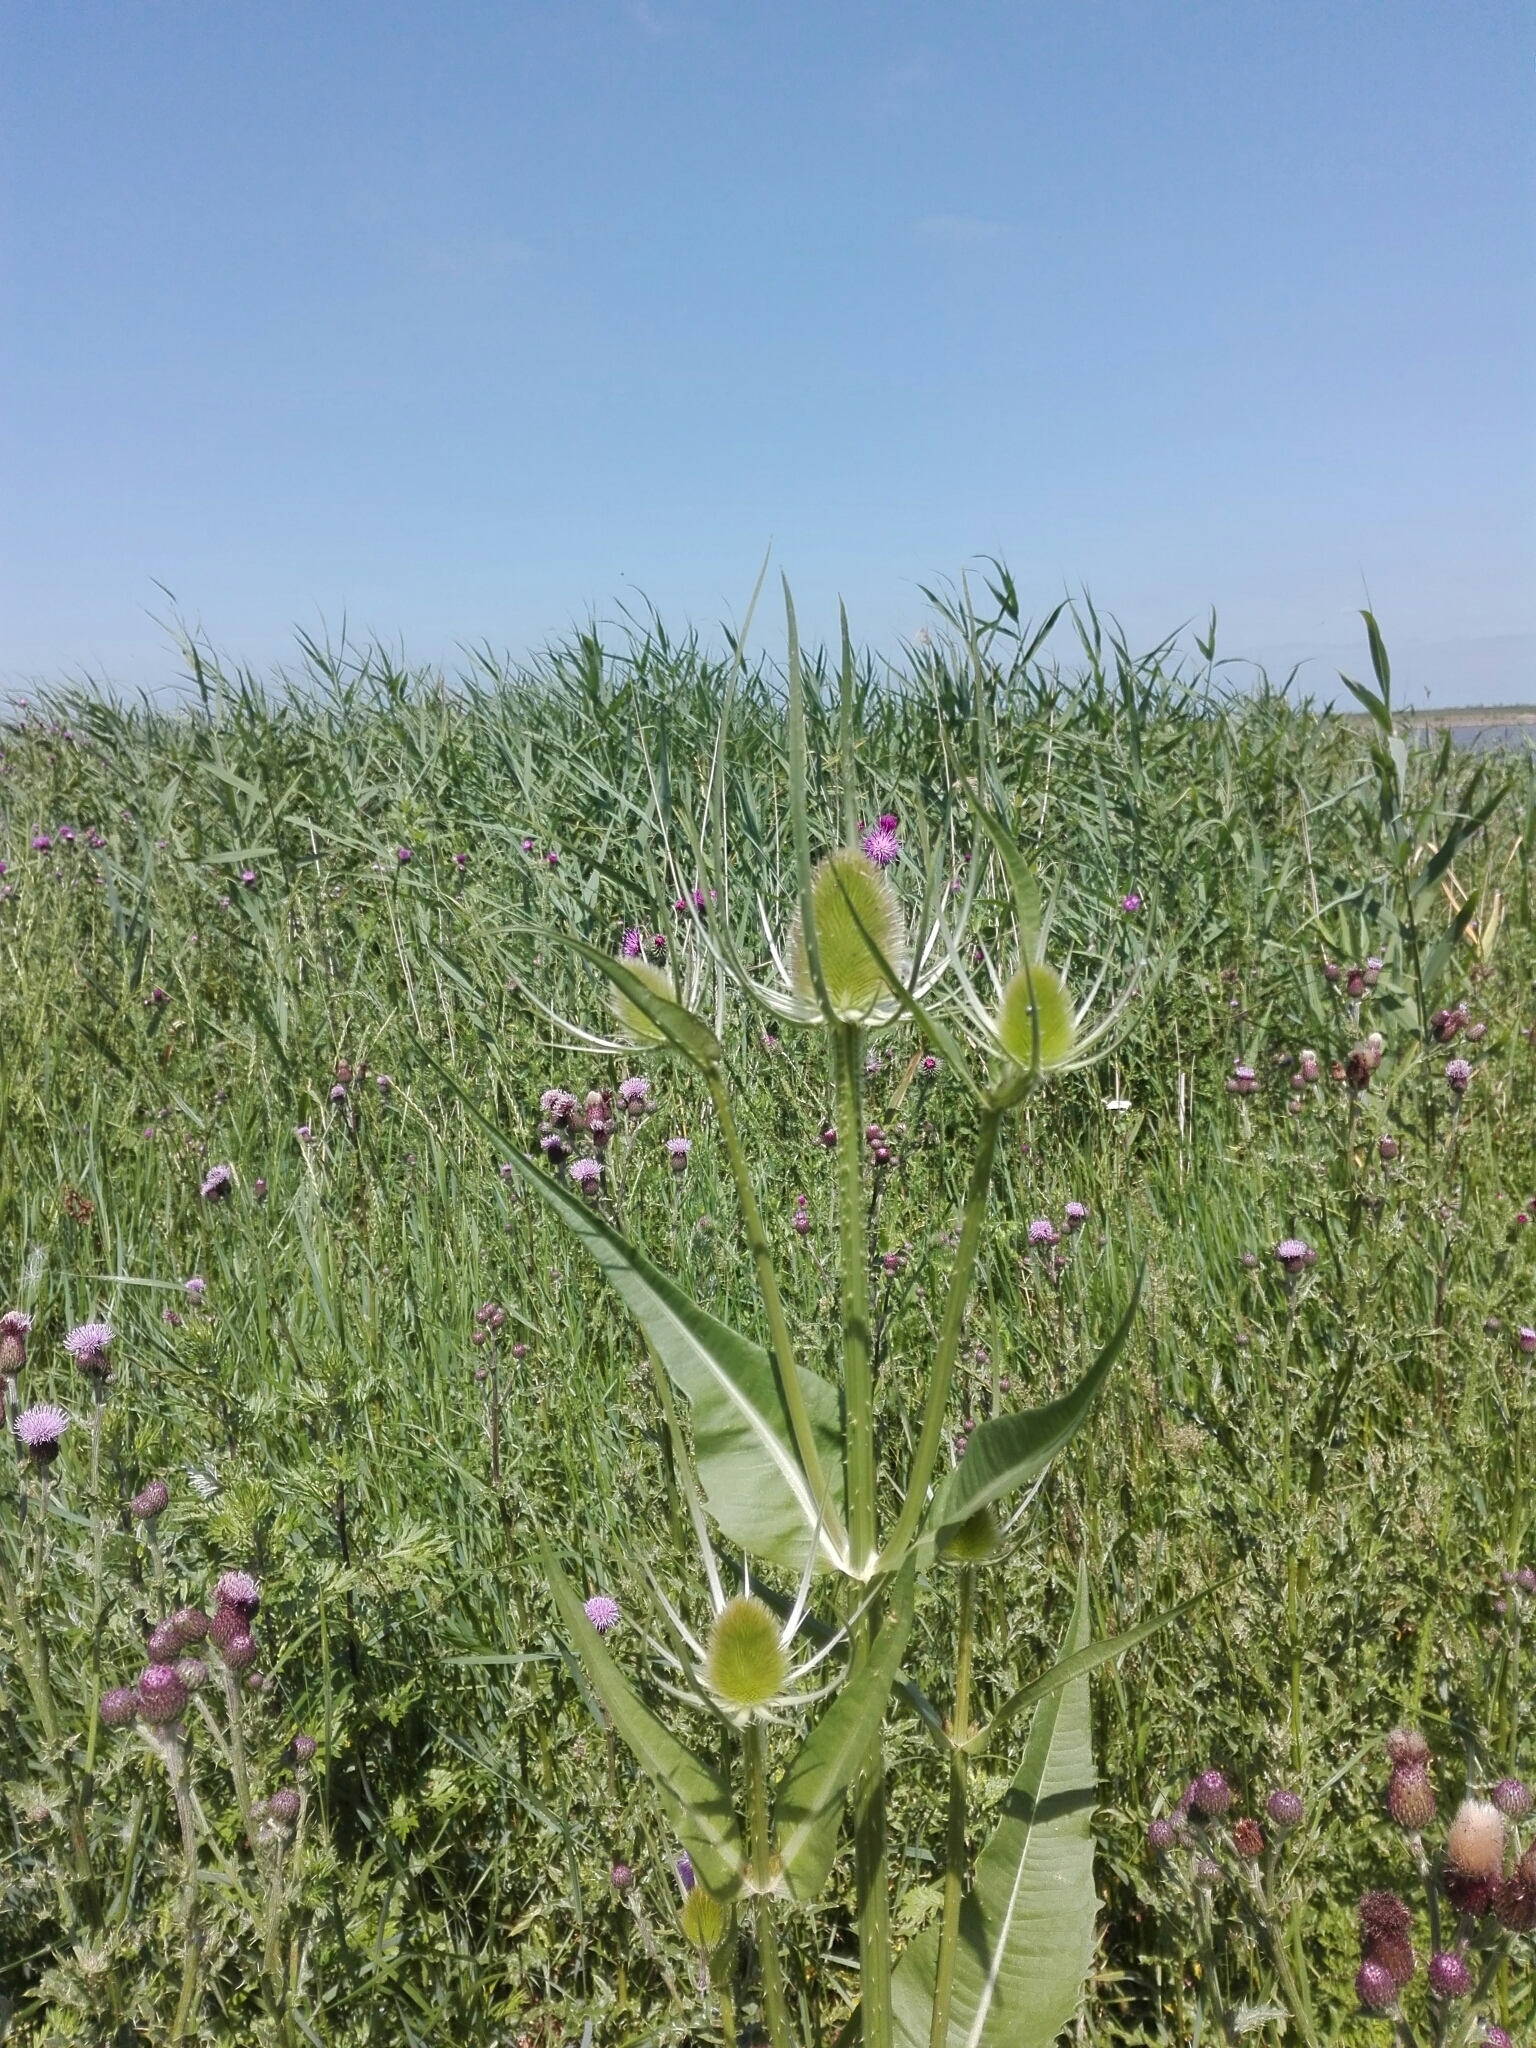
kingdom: Plantae
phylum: Tracheophyta
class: Magnoliopsida
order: Dipsacales
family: Caprifoliaceae
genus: Dipsacus
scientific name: Dipsacus fullonum
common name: Teasel
